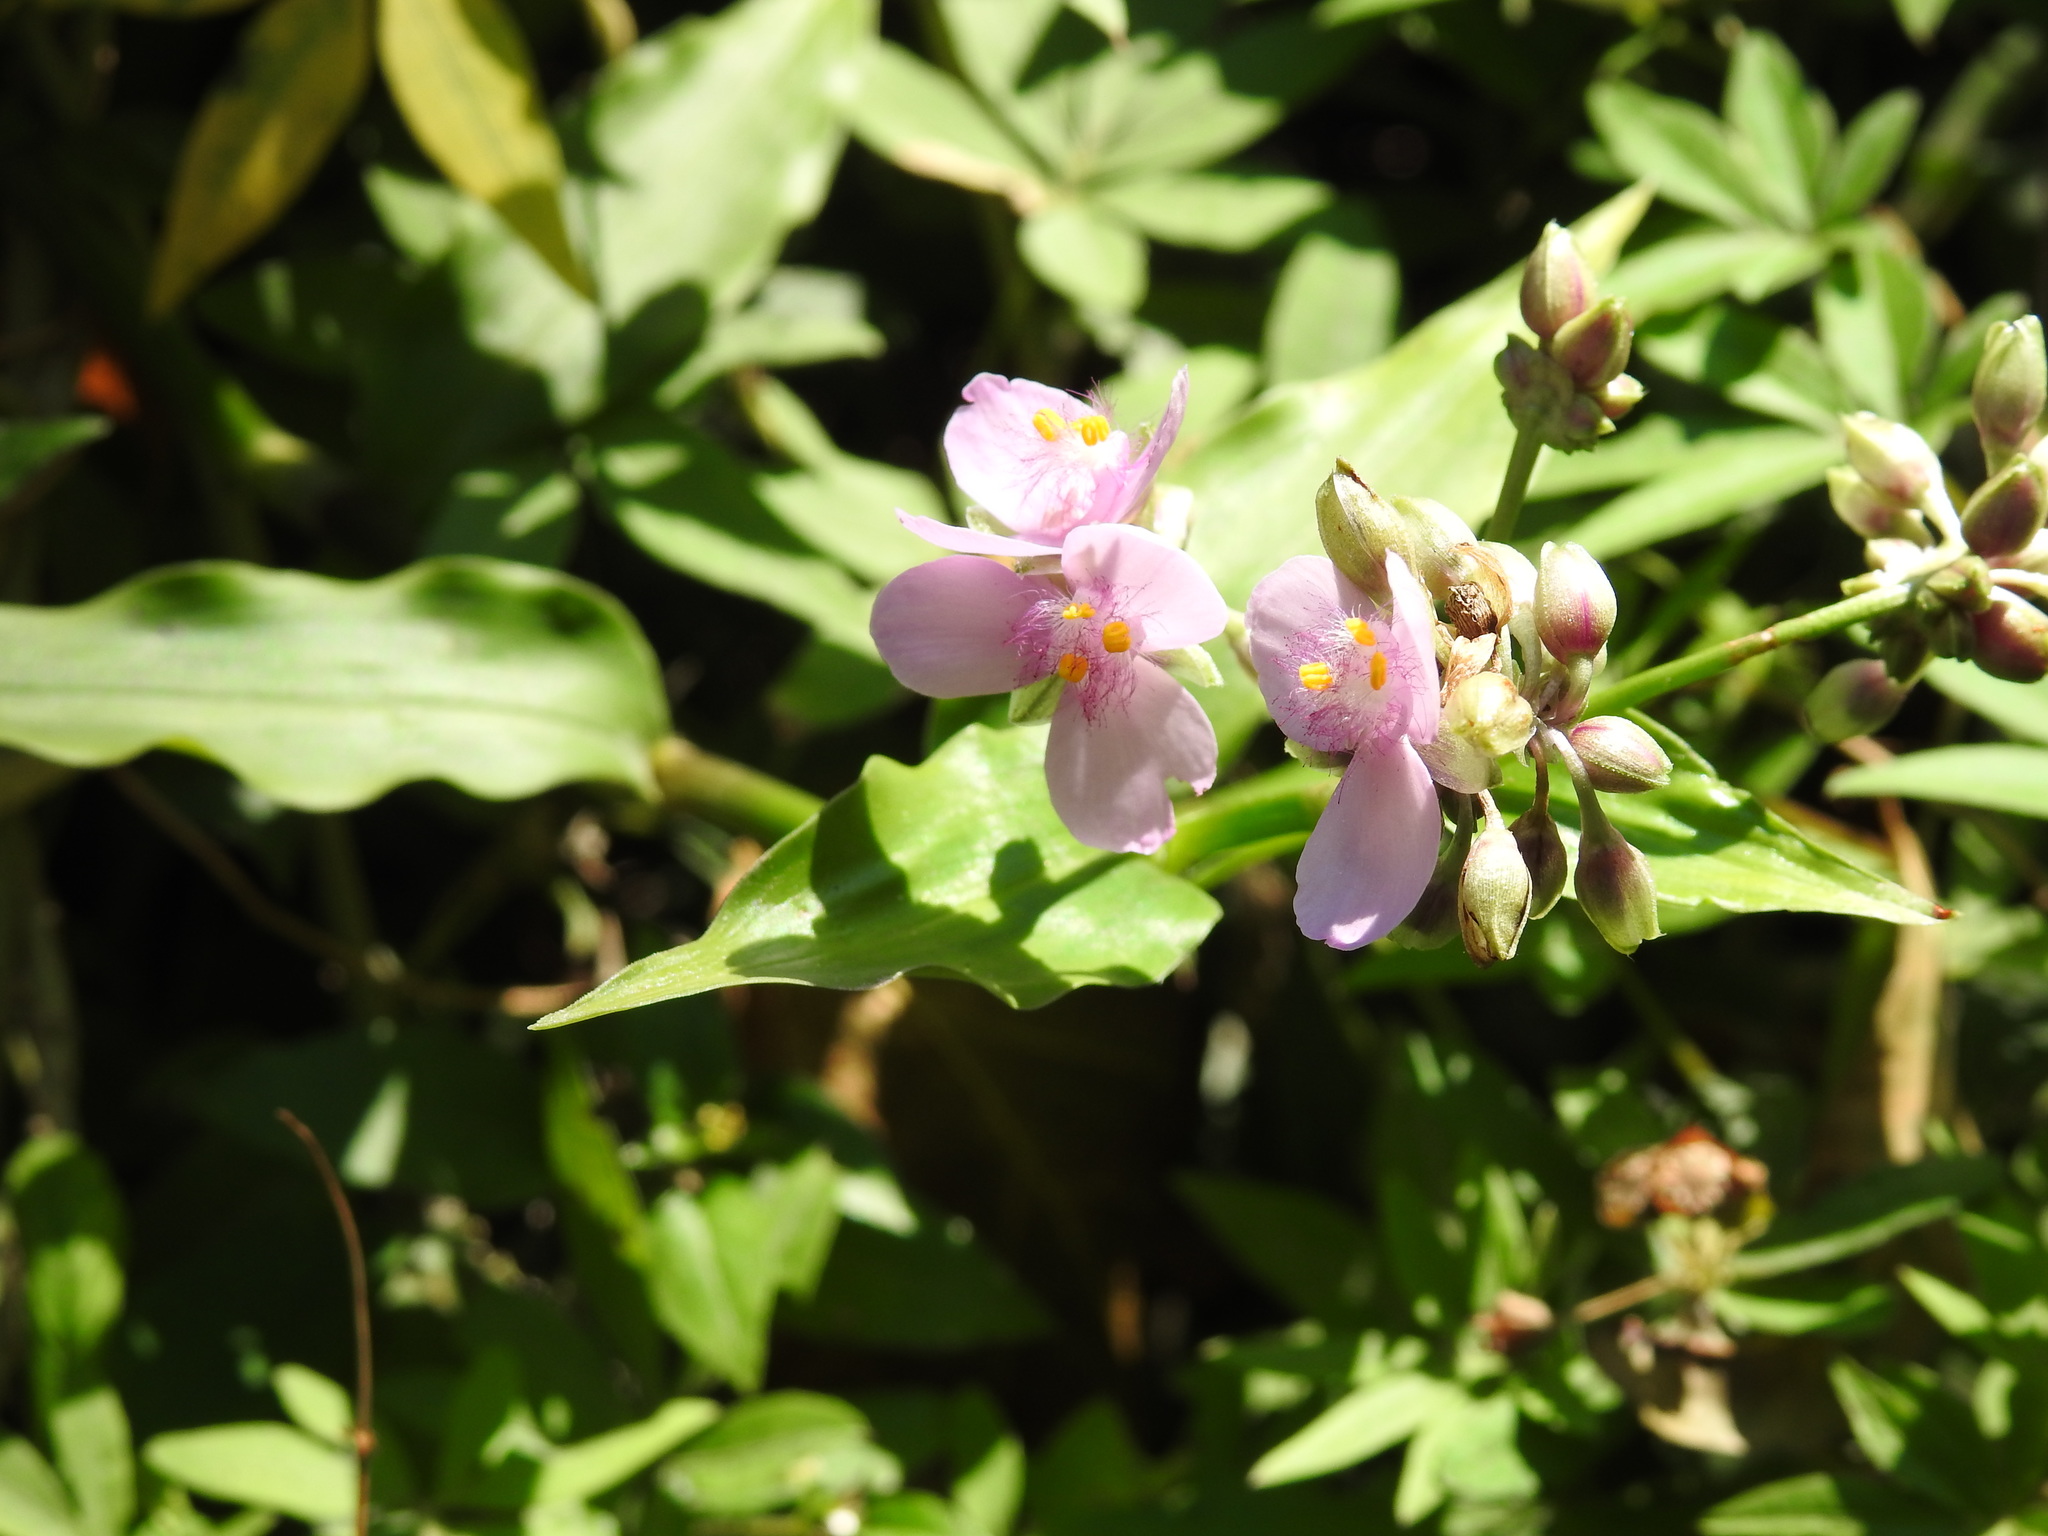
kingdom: Plantae
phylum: Tracheophyta
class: Liliopsida
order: Commelinales
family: Commelinaceae
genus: Callisia
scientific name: Callisia diuretica
